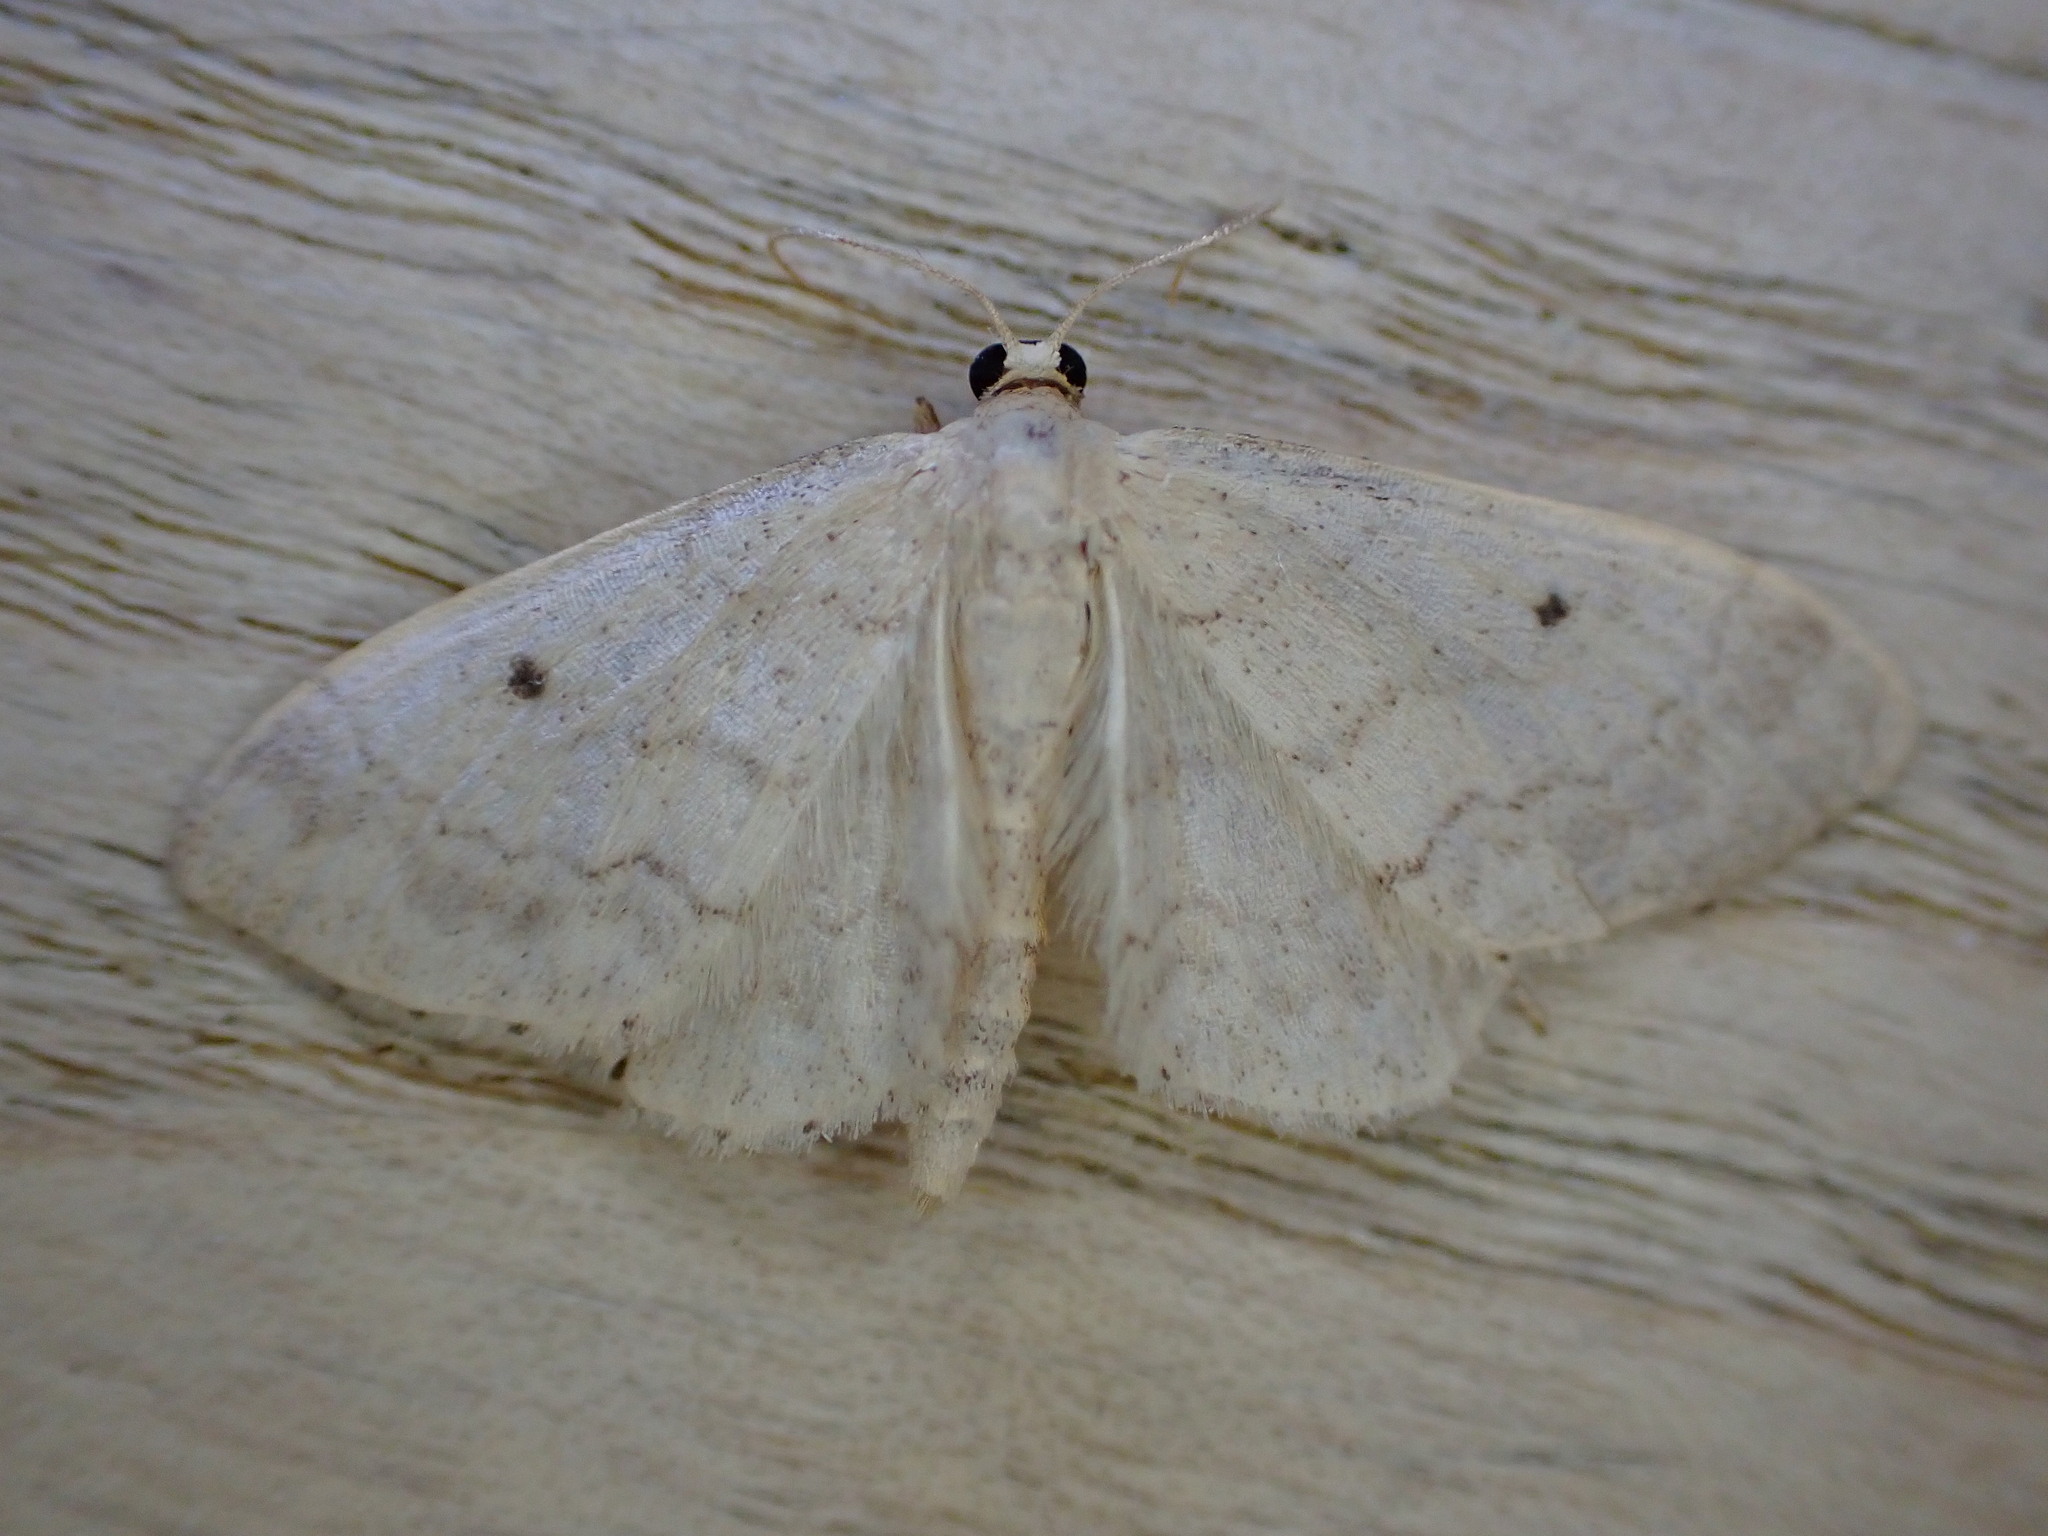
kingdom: Animalia
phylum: Arthropoda
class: Insecta
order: Lepidoptera
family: Geometridae
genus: Idaea
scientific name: Idaea biselata
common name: Small fan-footed wave
